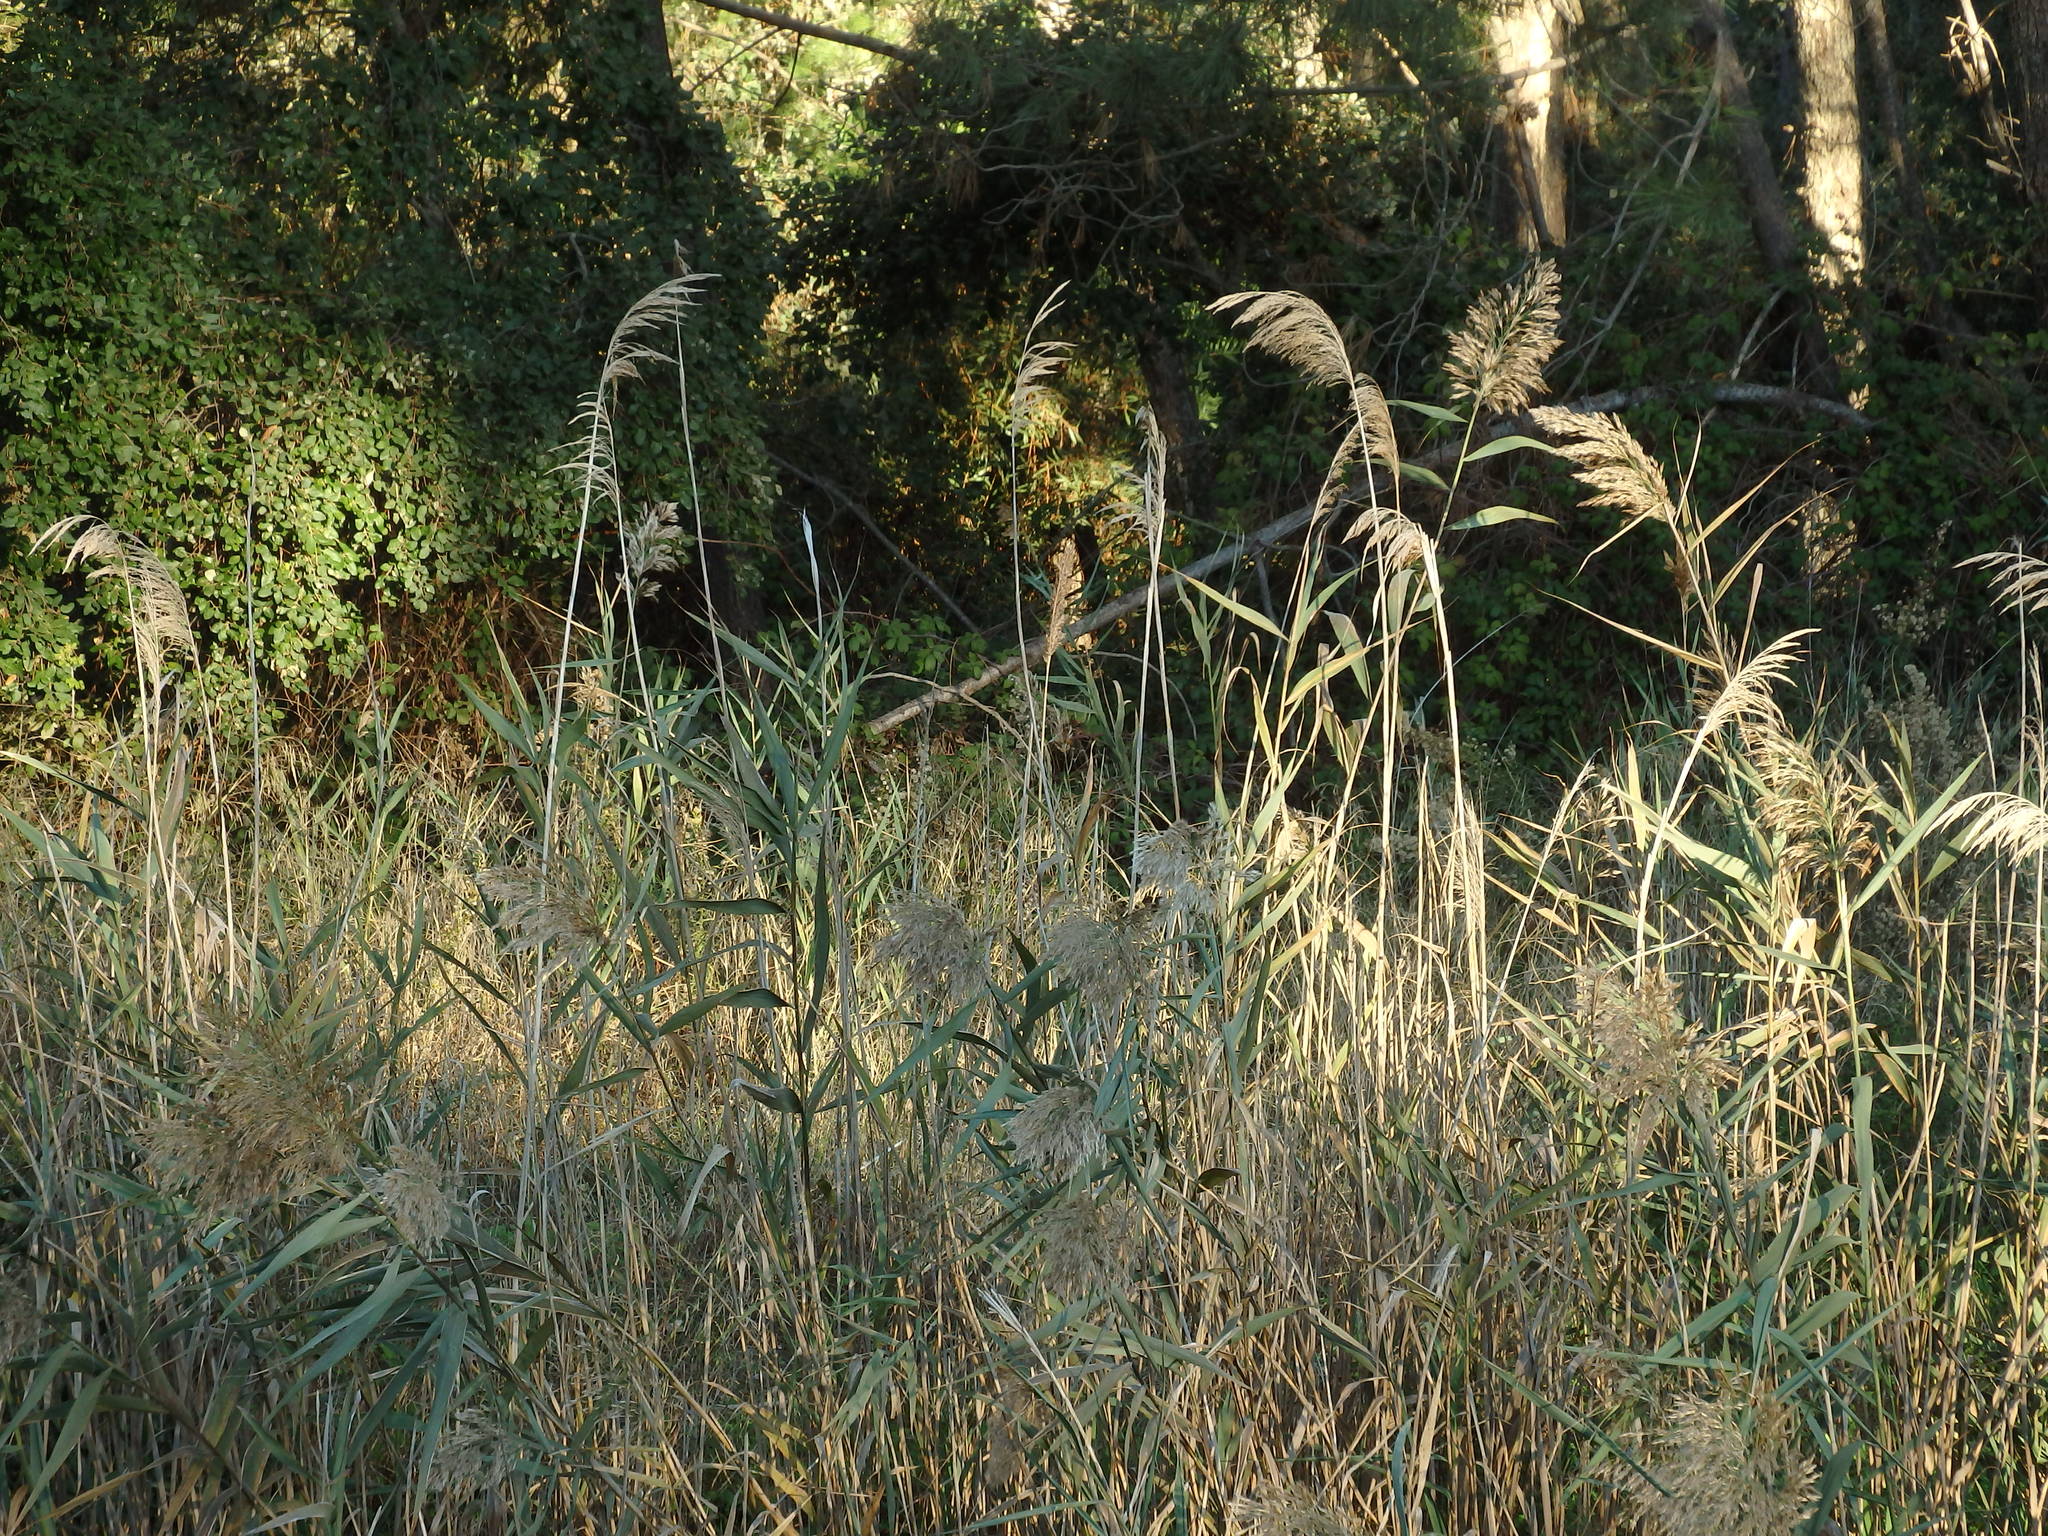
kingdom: Plantae
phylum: Tracheophyta
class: Liliopsida
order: Poales
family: Poaceae
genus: Phragmites
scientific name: Phragmites australis
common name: Common reed
